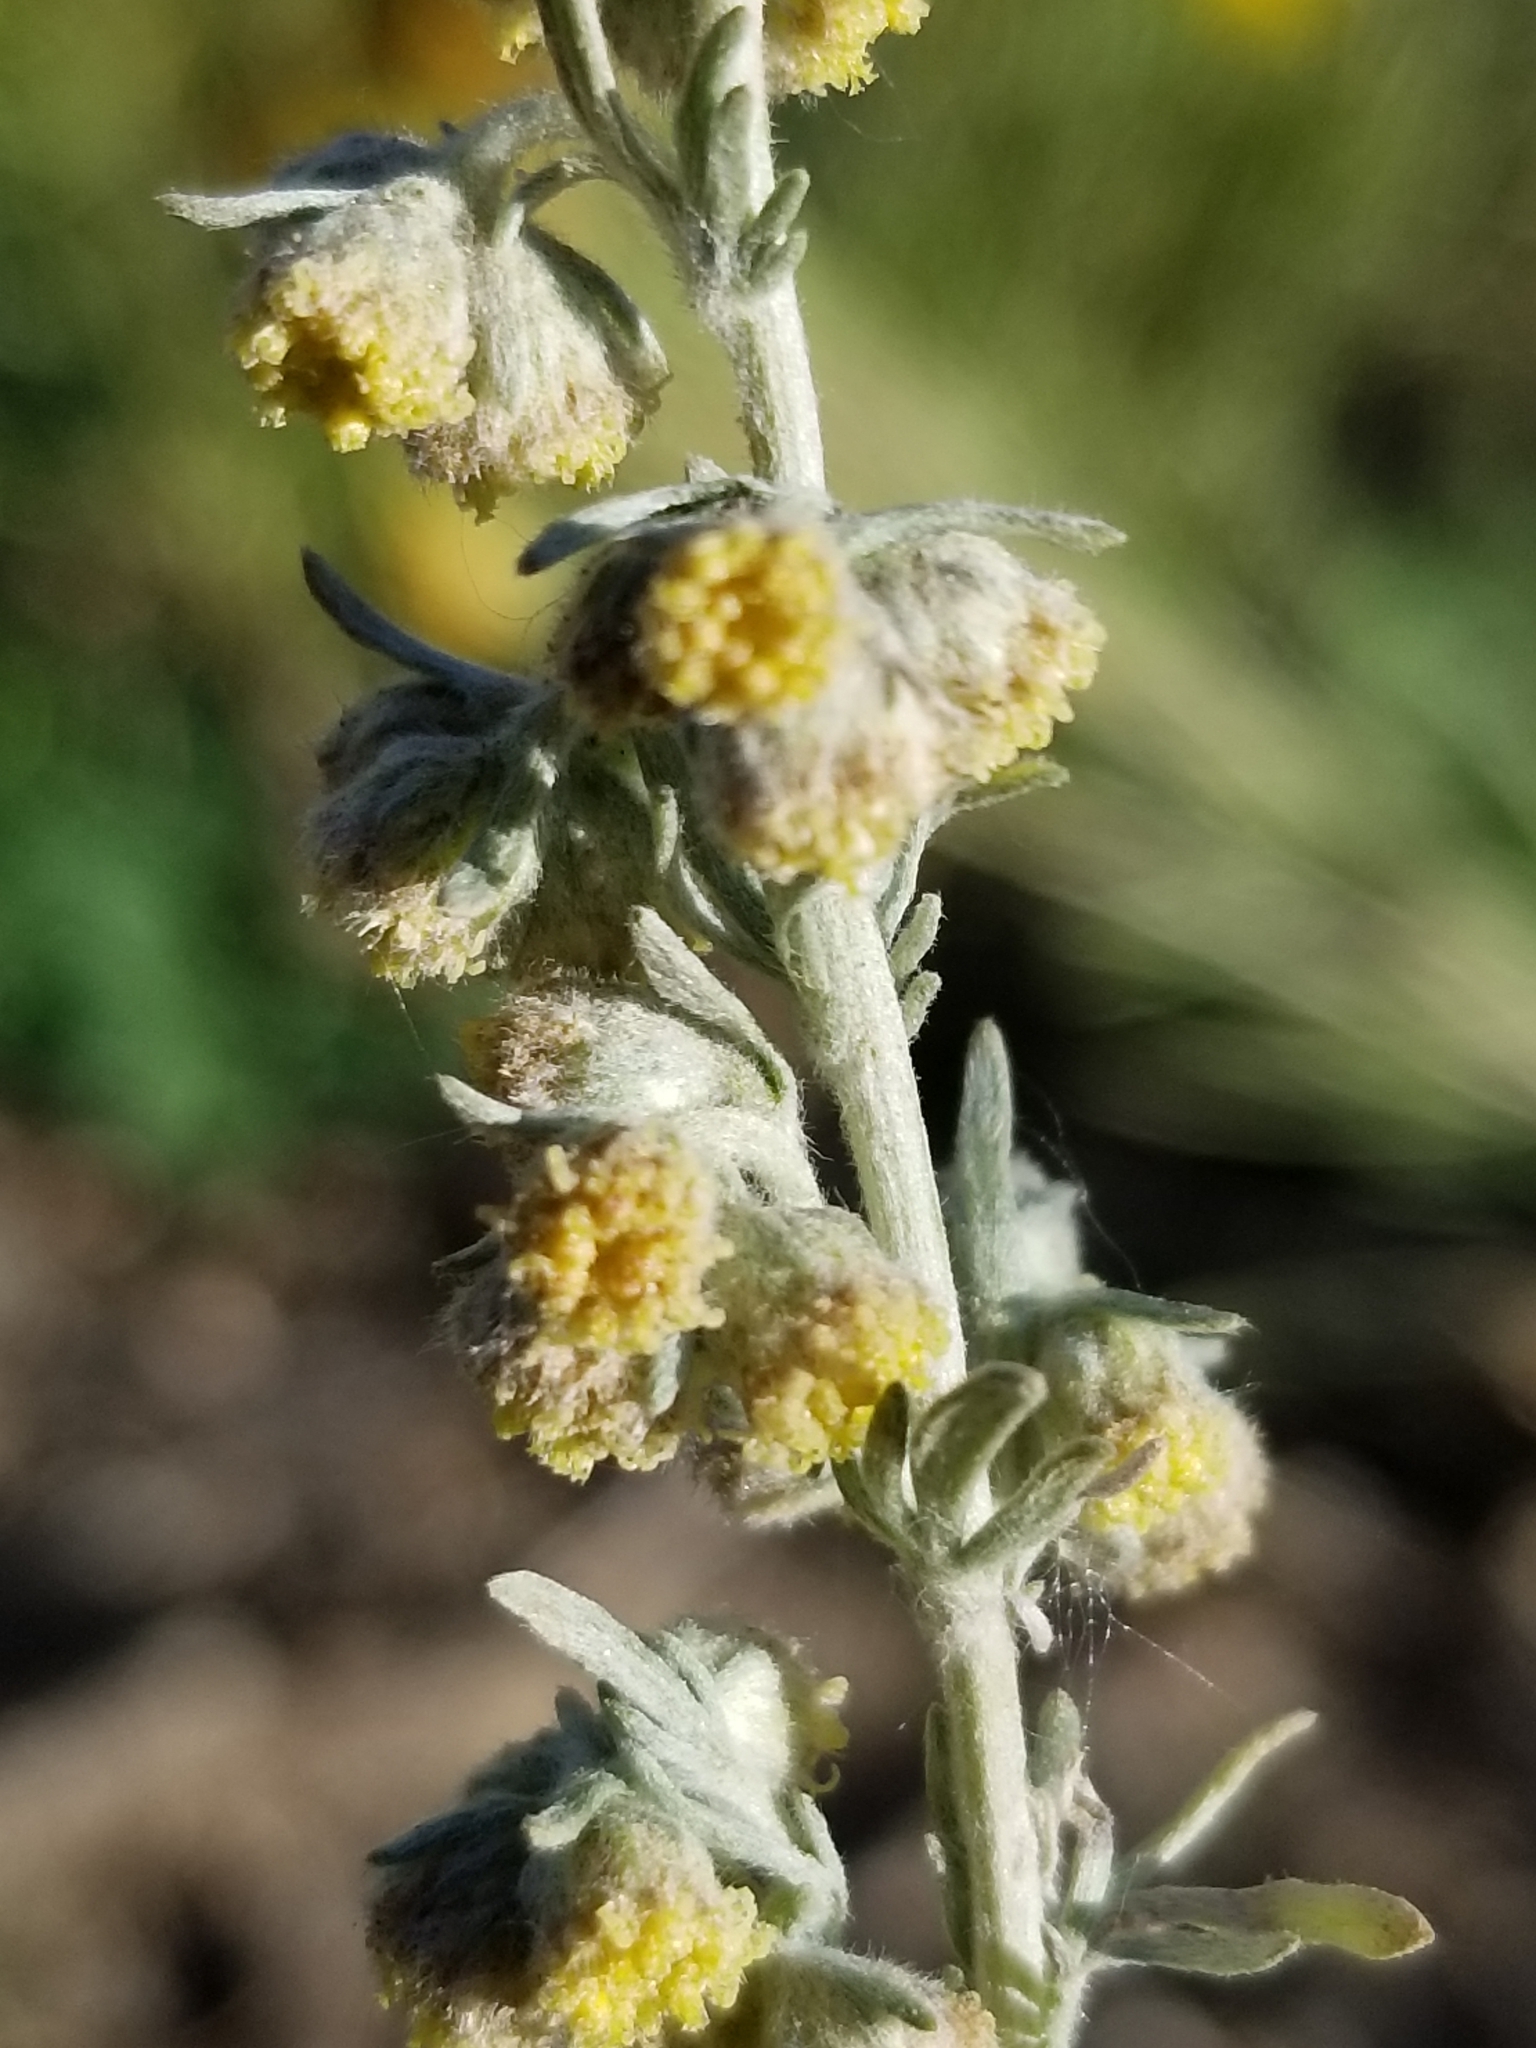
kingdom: Plantae
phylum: Tracheophyta
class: Magnoliopsida
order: Asterales
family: Asteraceae
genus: Artemisia
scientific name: Artemisia frigida
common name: Prairie sagewort
